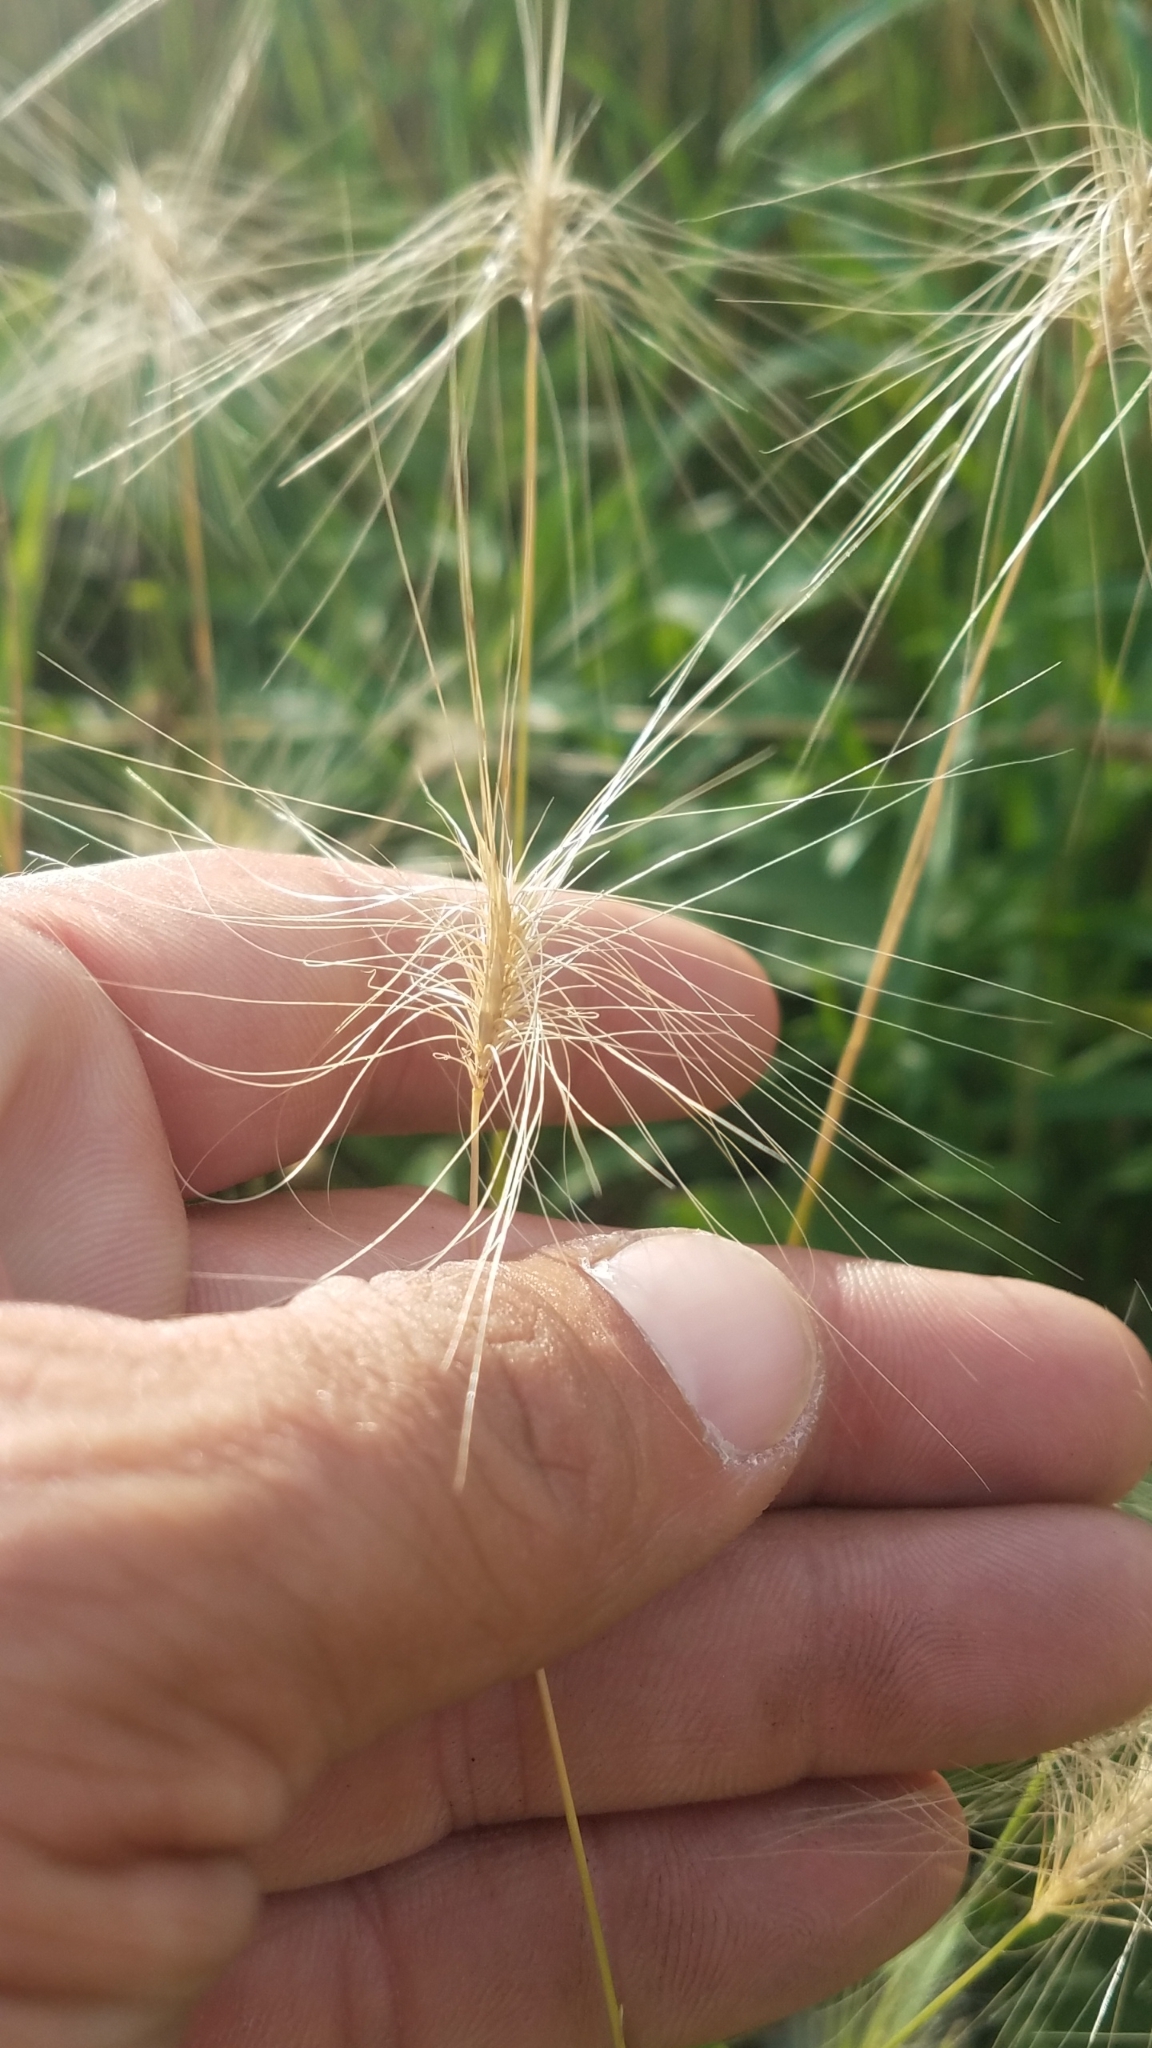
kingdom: Plantae
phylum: Tracheophyta
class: Liliopsida
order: Poales
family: Poaceae
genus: Hordeum
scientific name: Hordeum jubatum
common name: Foxtail barley
